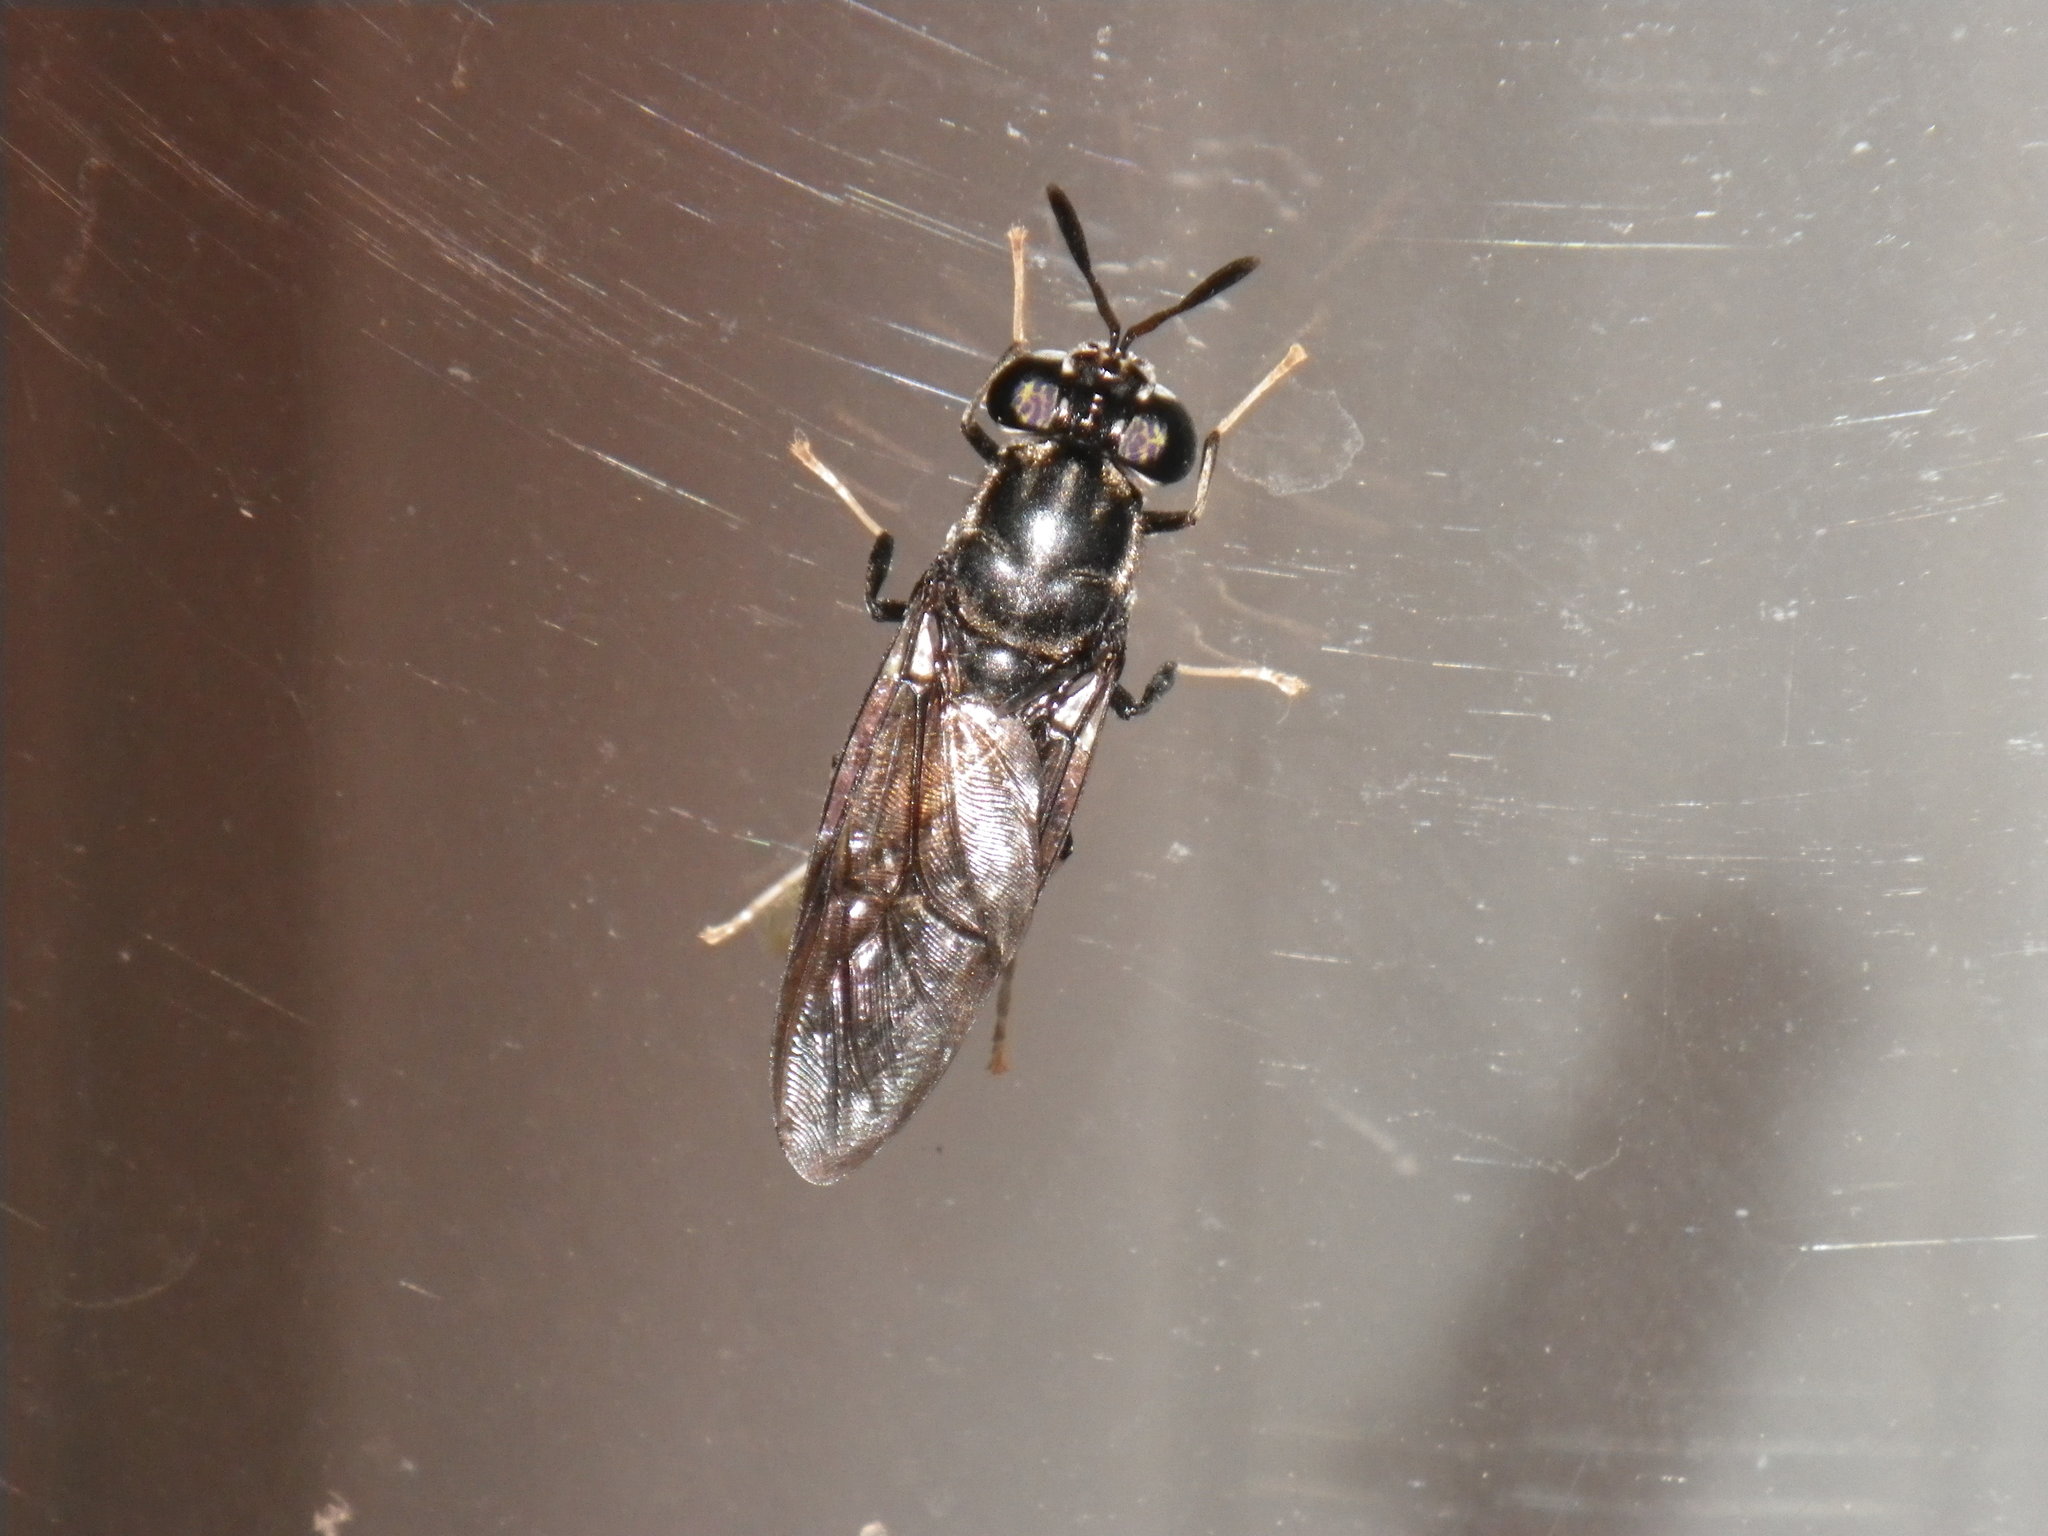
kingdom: Animalia
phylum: Arthropoda
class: Insecta
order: Diptera
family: Stratiomyidae
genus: Hermetia
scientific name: Hermetia illucens
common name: Black soldier fly
